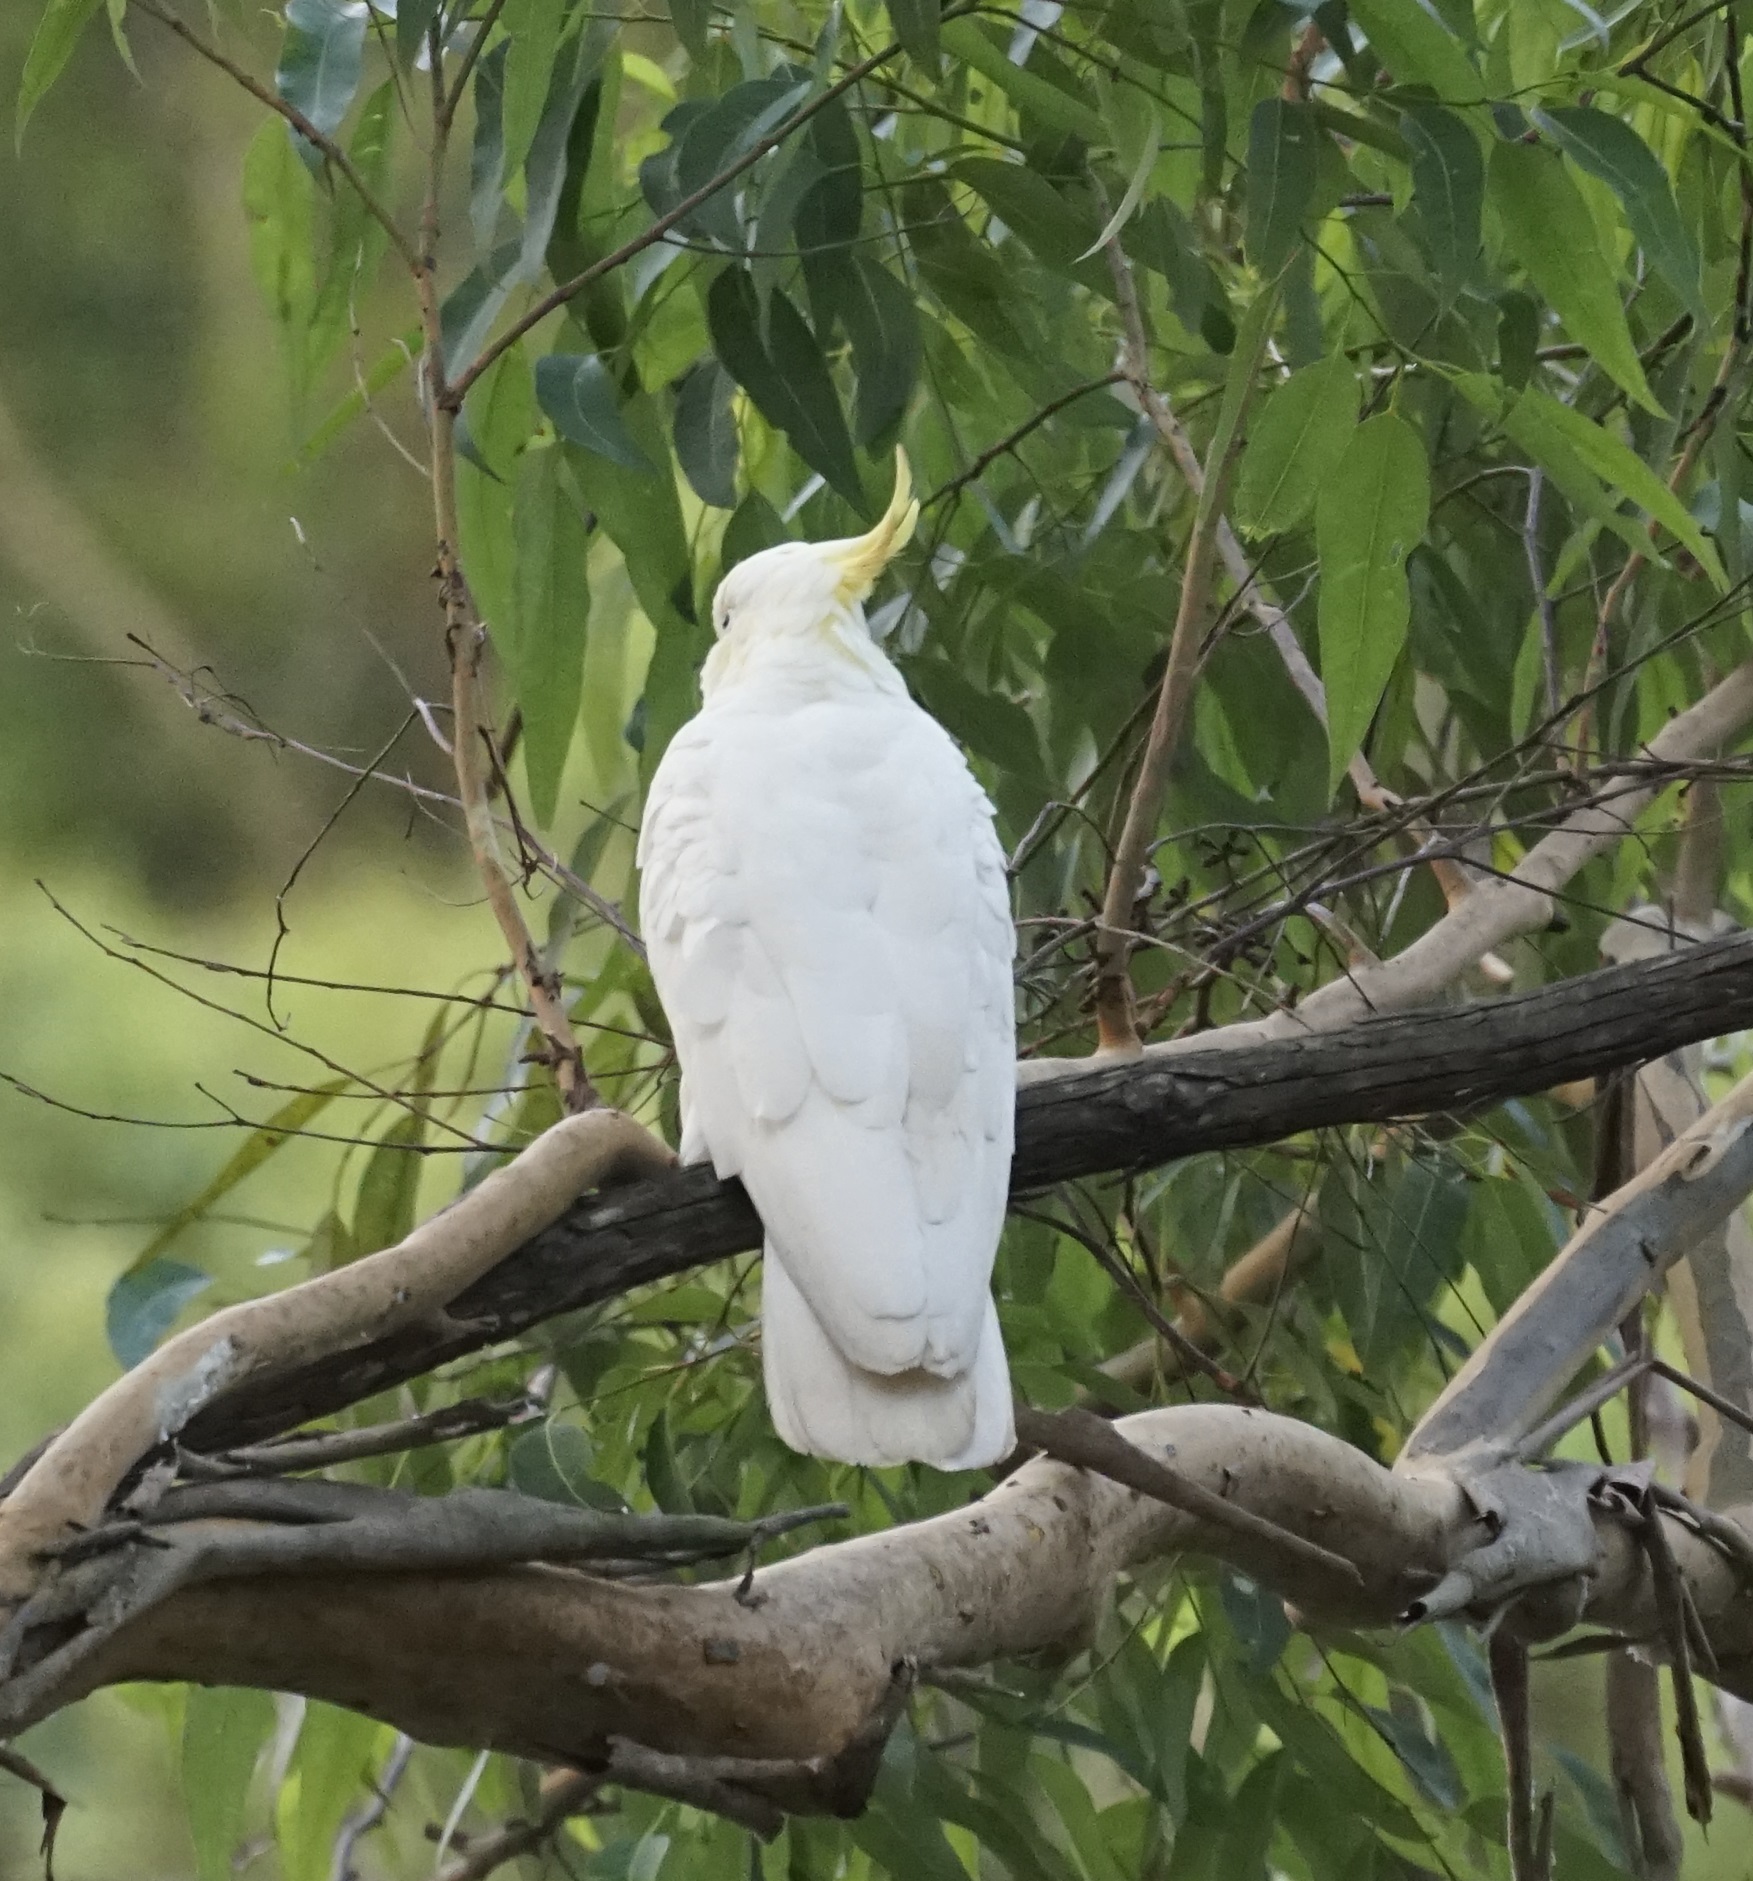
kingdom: Animalia
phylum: Chordata
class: Aves
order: Psittaciformes
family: Psittacidae
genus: Cacatua
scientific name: Cacatua galerita
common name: Sulphur-crested cockatoo
